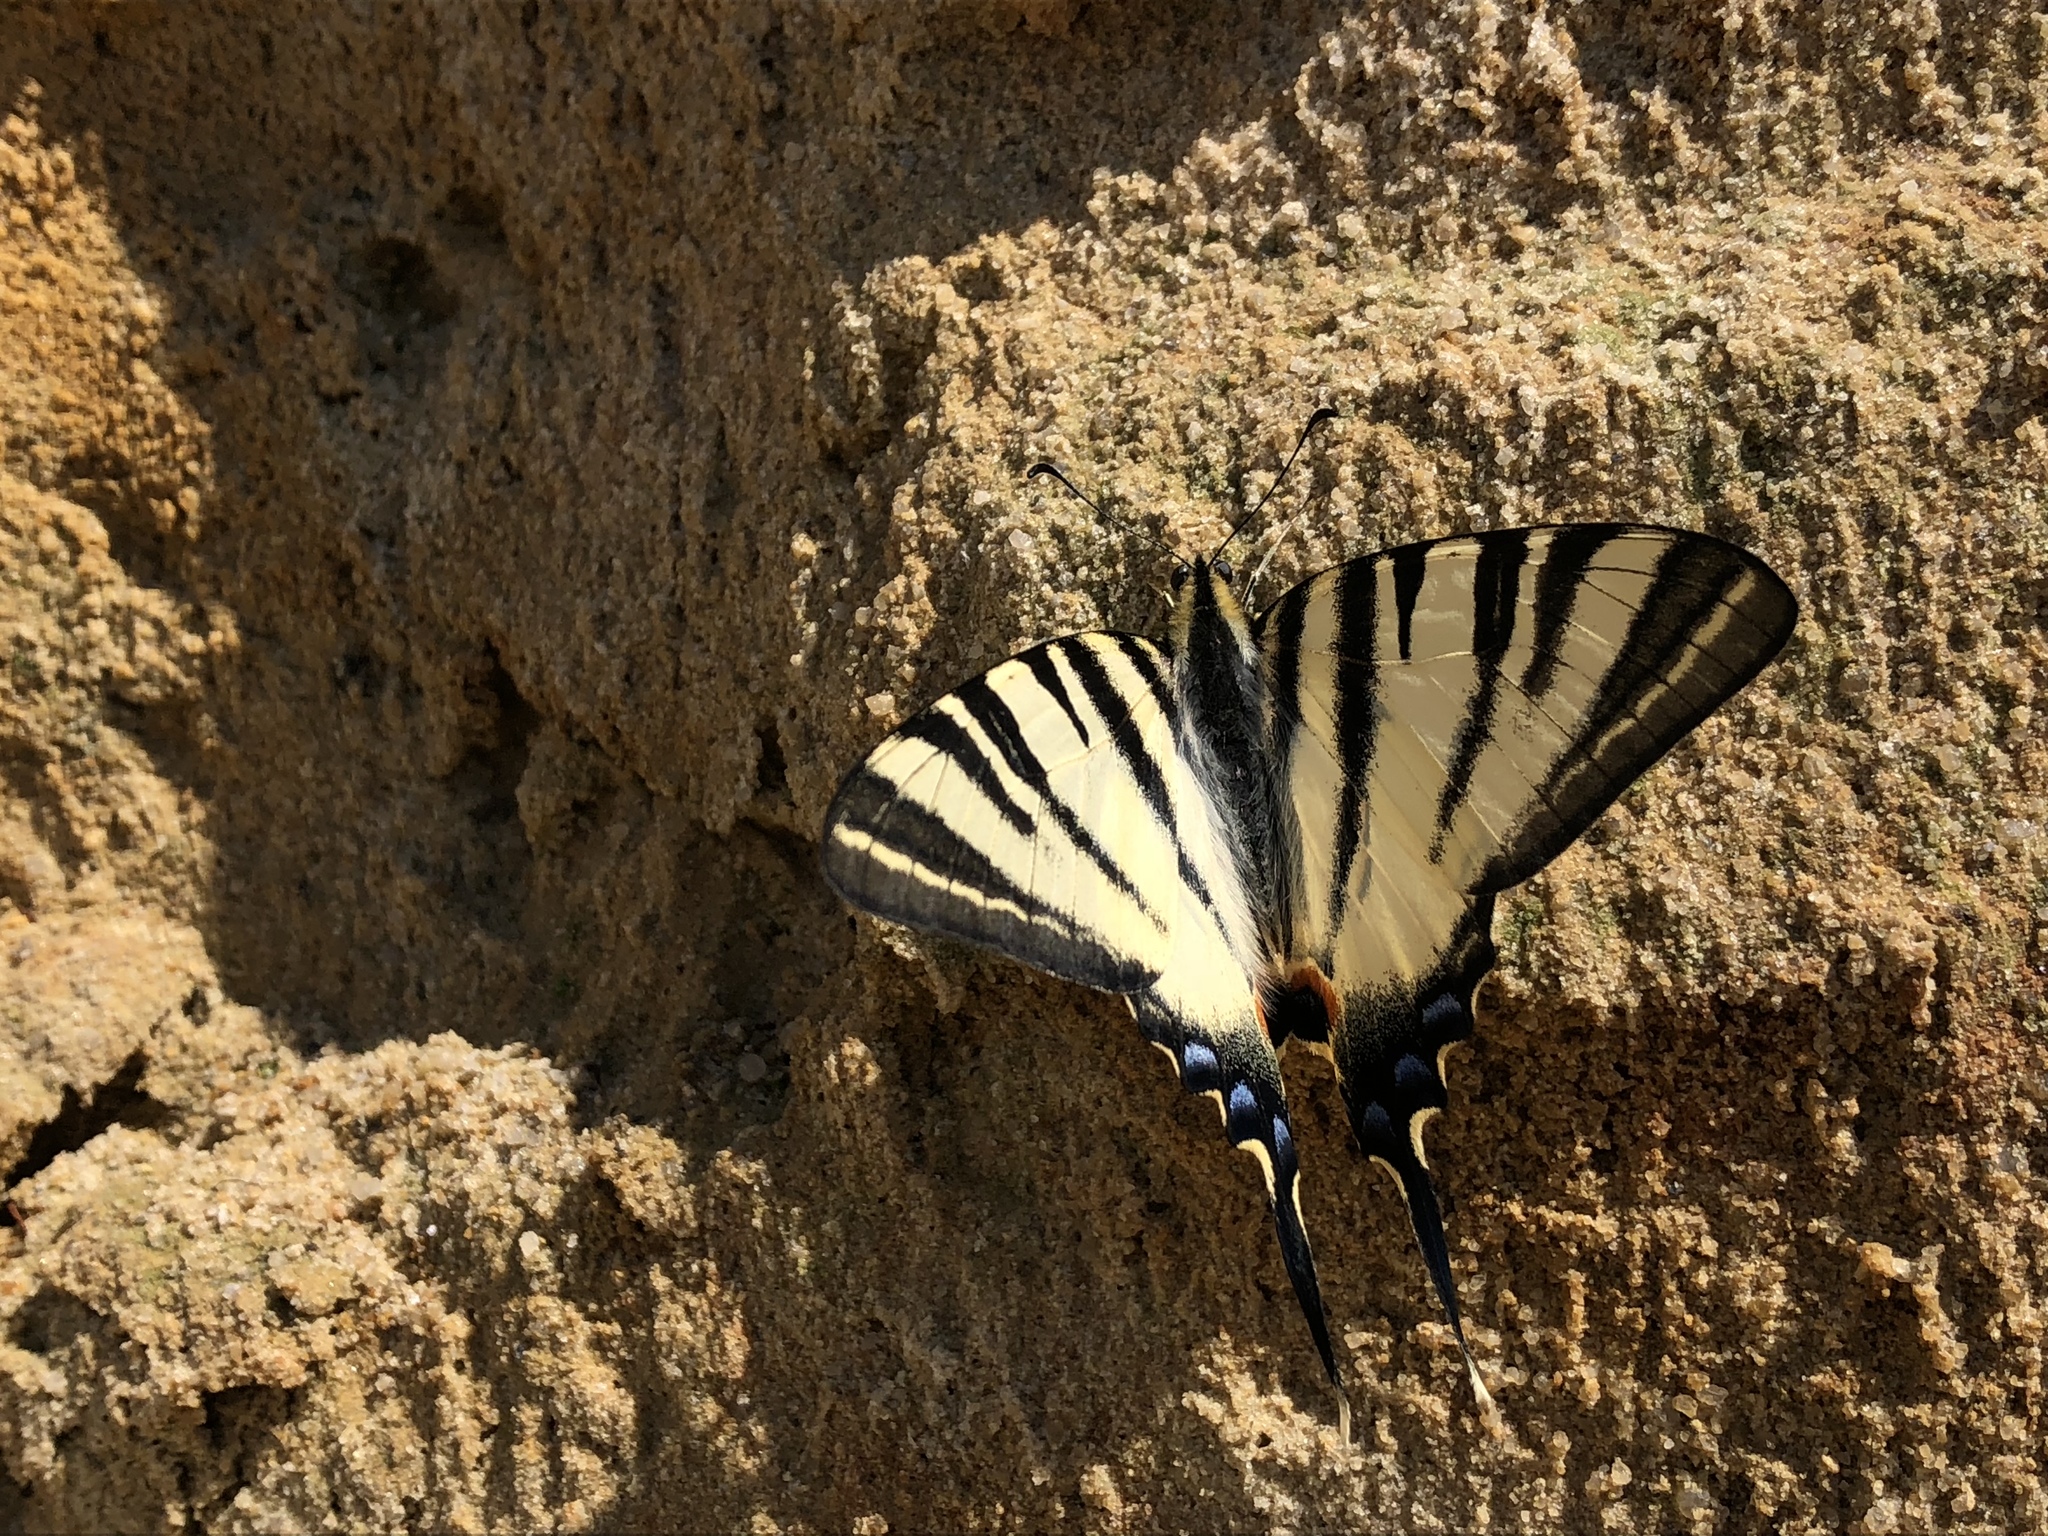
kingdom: Animalia
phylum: Arthropoda
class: Insecta
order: Lepidoptera
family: Papilionidae
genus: Iphiclides
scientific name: Iphiclides podalirius
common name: Scarce swallowtail
